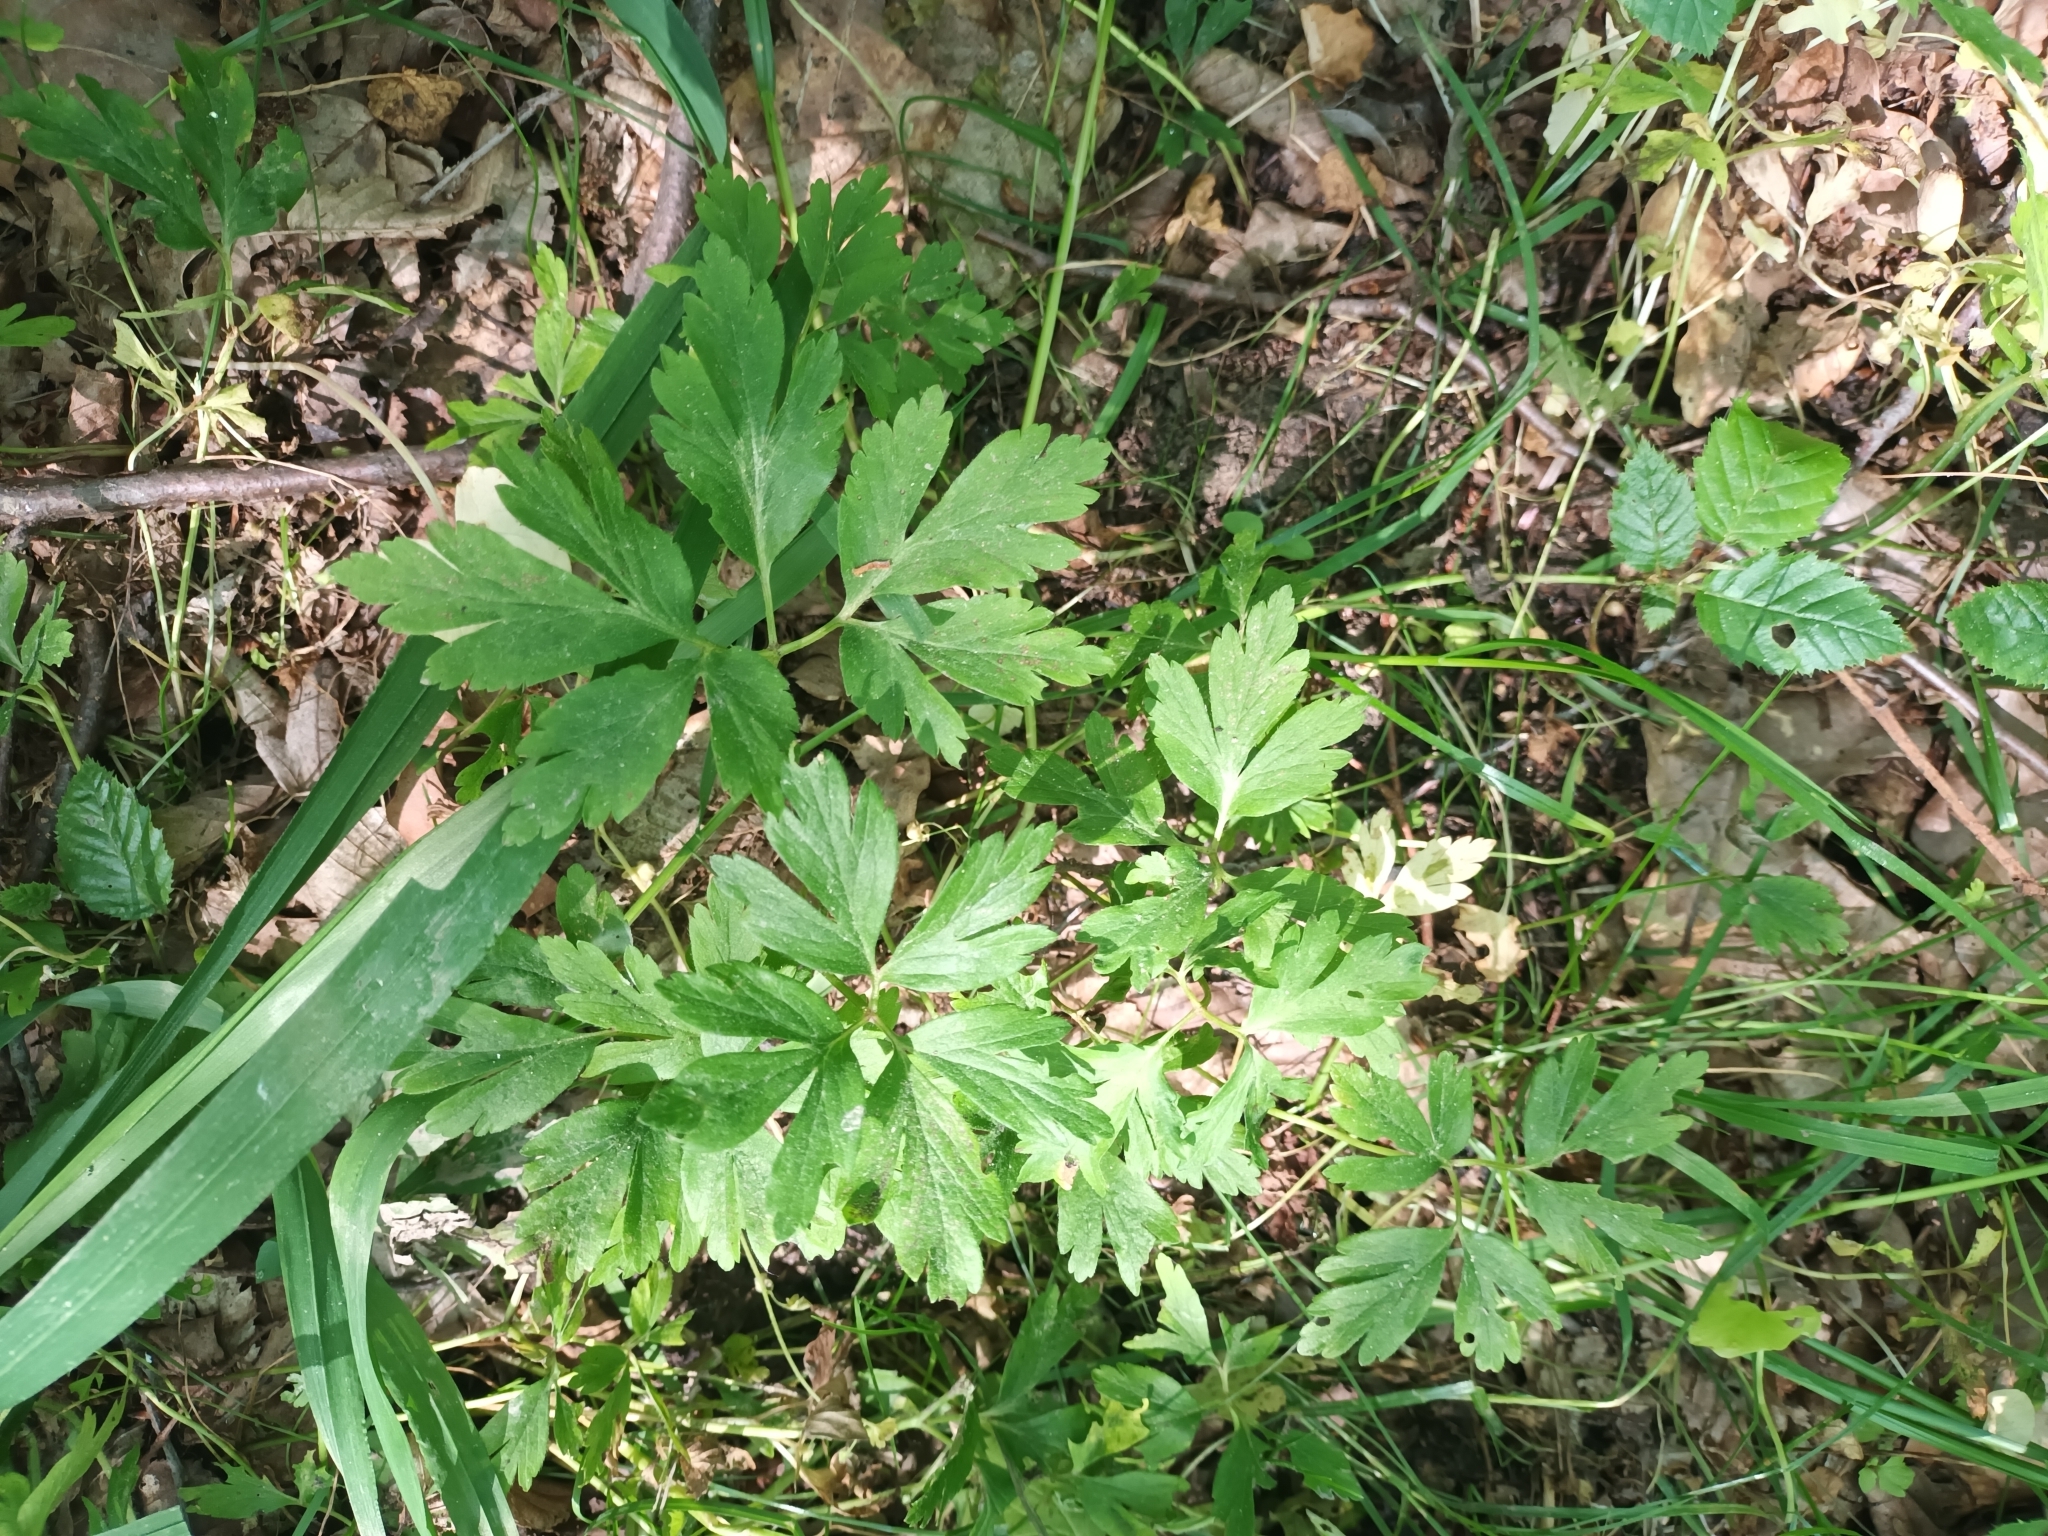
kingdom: Plantae
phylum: Tracheophyta
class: Magnoliopsida
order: Ranunculales
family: Ranunculaceae
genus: Anemone
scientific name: Anemone nemorosa
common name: Wood anemone
